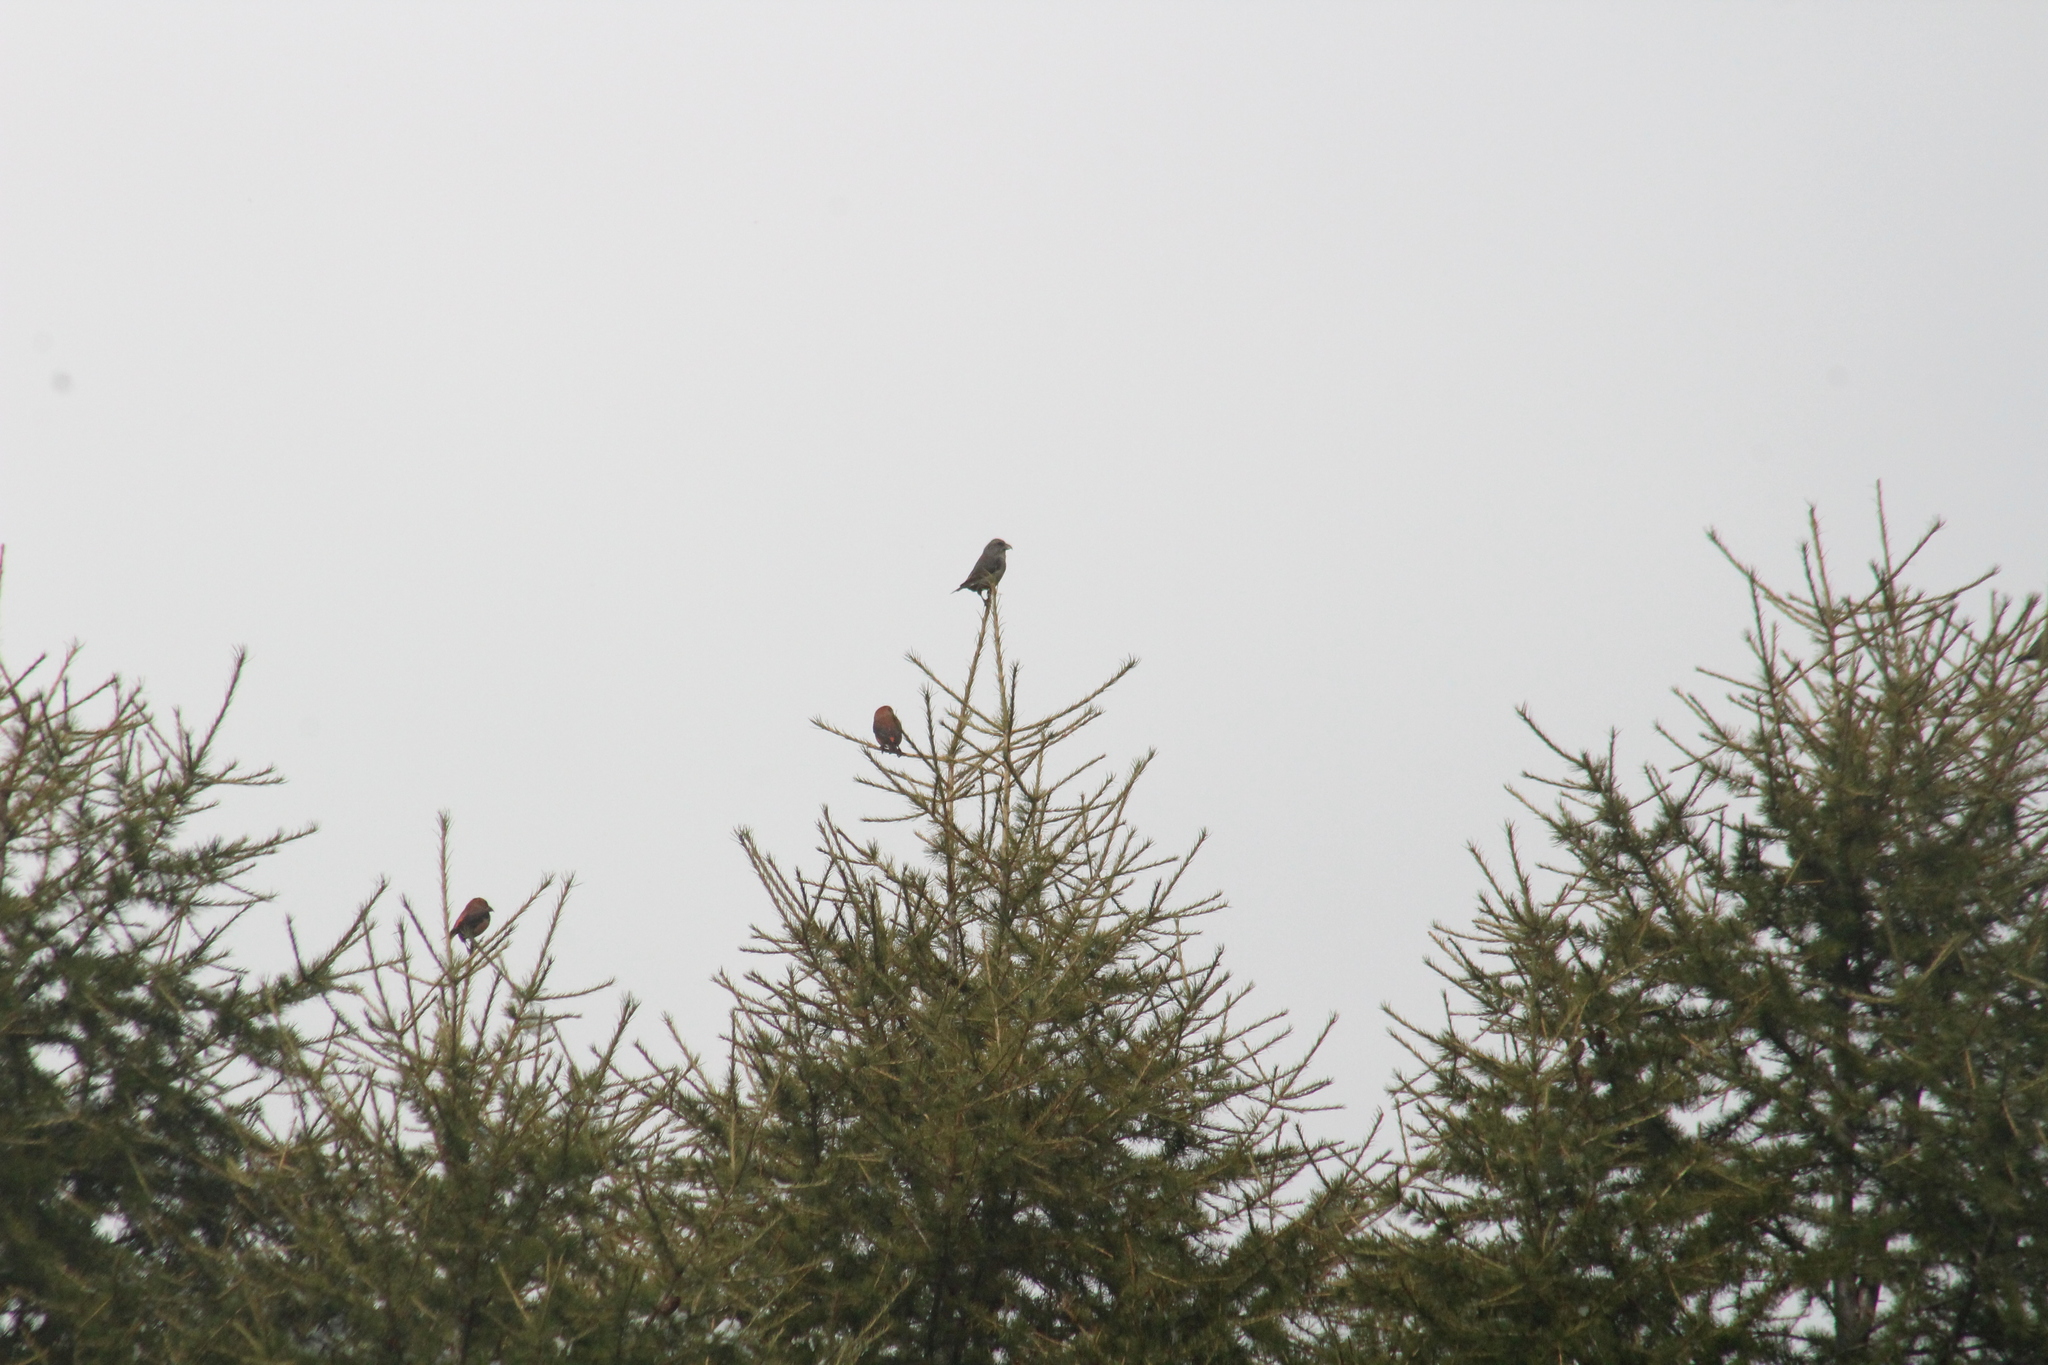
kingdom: Animalia
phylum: Chordata
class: Aves
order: Passeriformes
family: Fringillidae
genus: Loxia
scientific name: Loxia curvirostra
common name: Red crossbill
